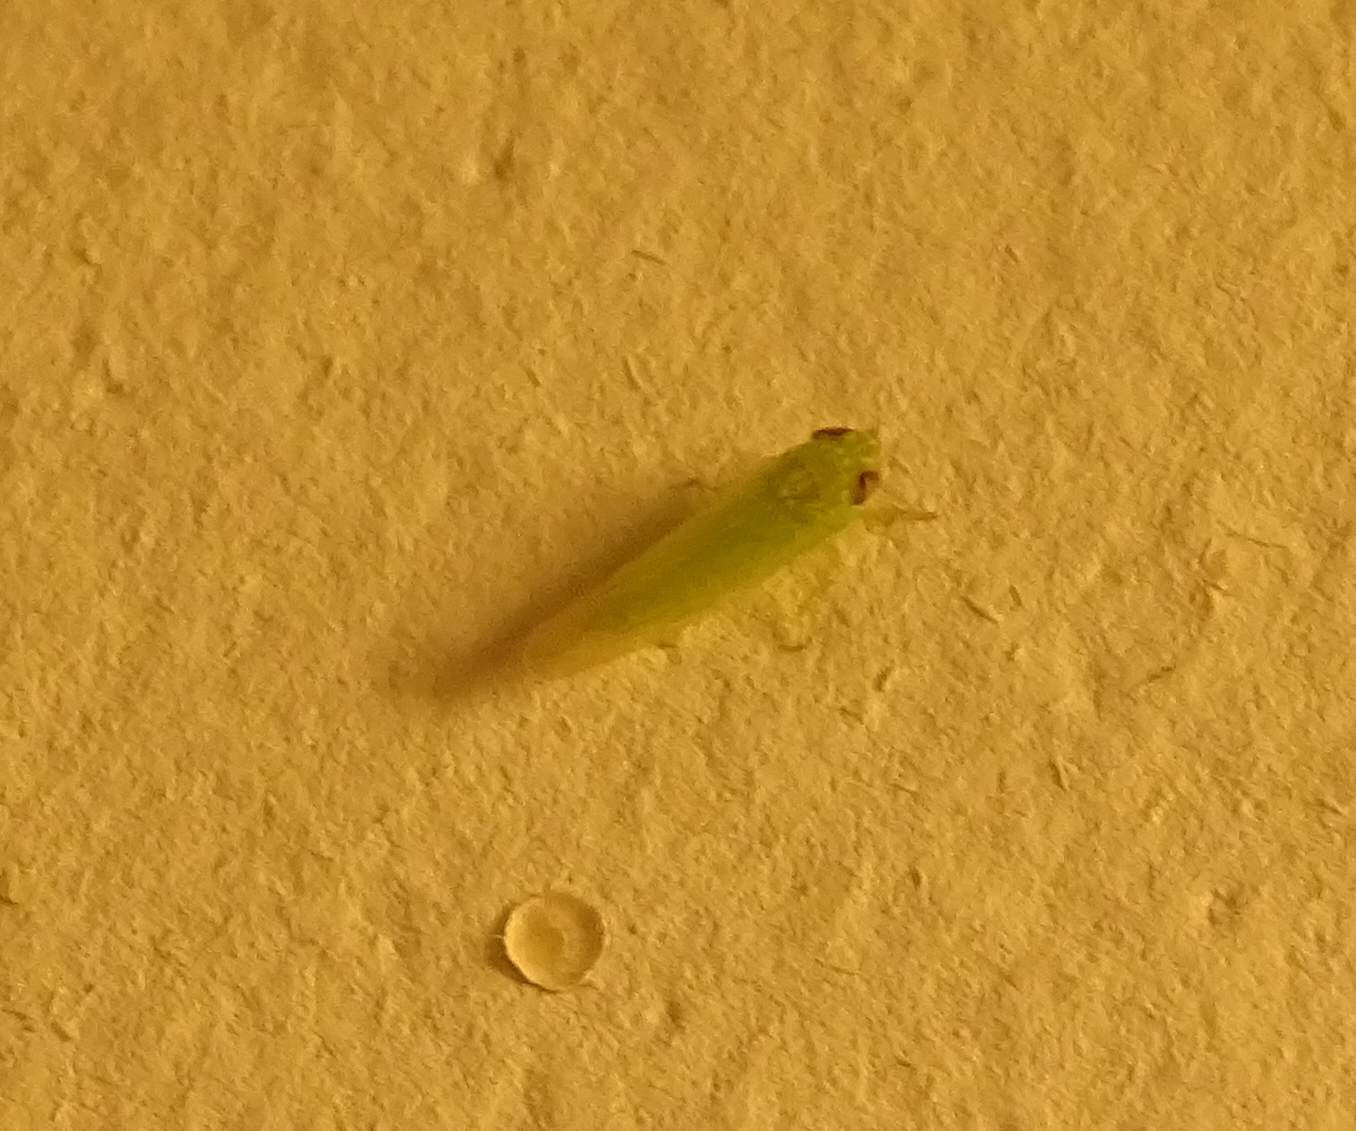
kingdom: Animalia
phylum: Arthropoda
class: Insecta
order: Hemiptera
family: Cicadellidae
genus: Empoasca
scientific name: Empoasca fabae
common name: Potato leafhopper
